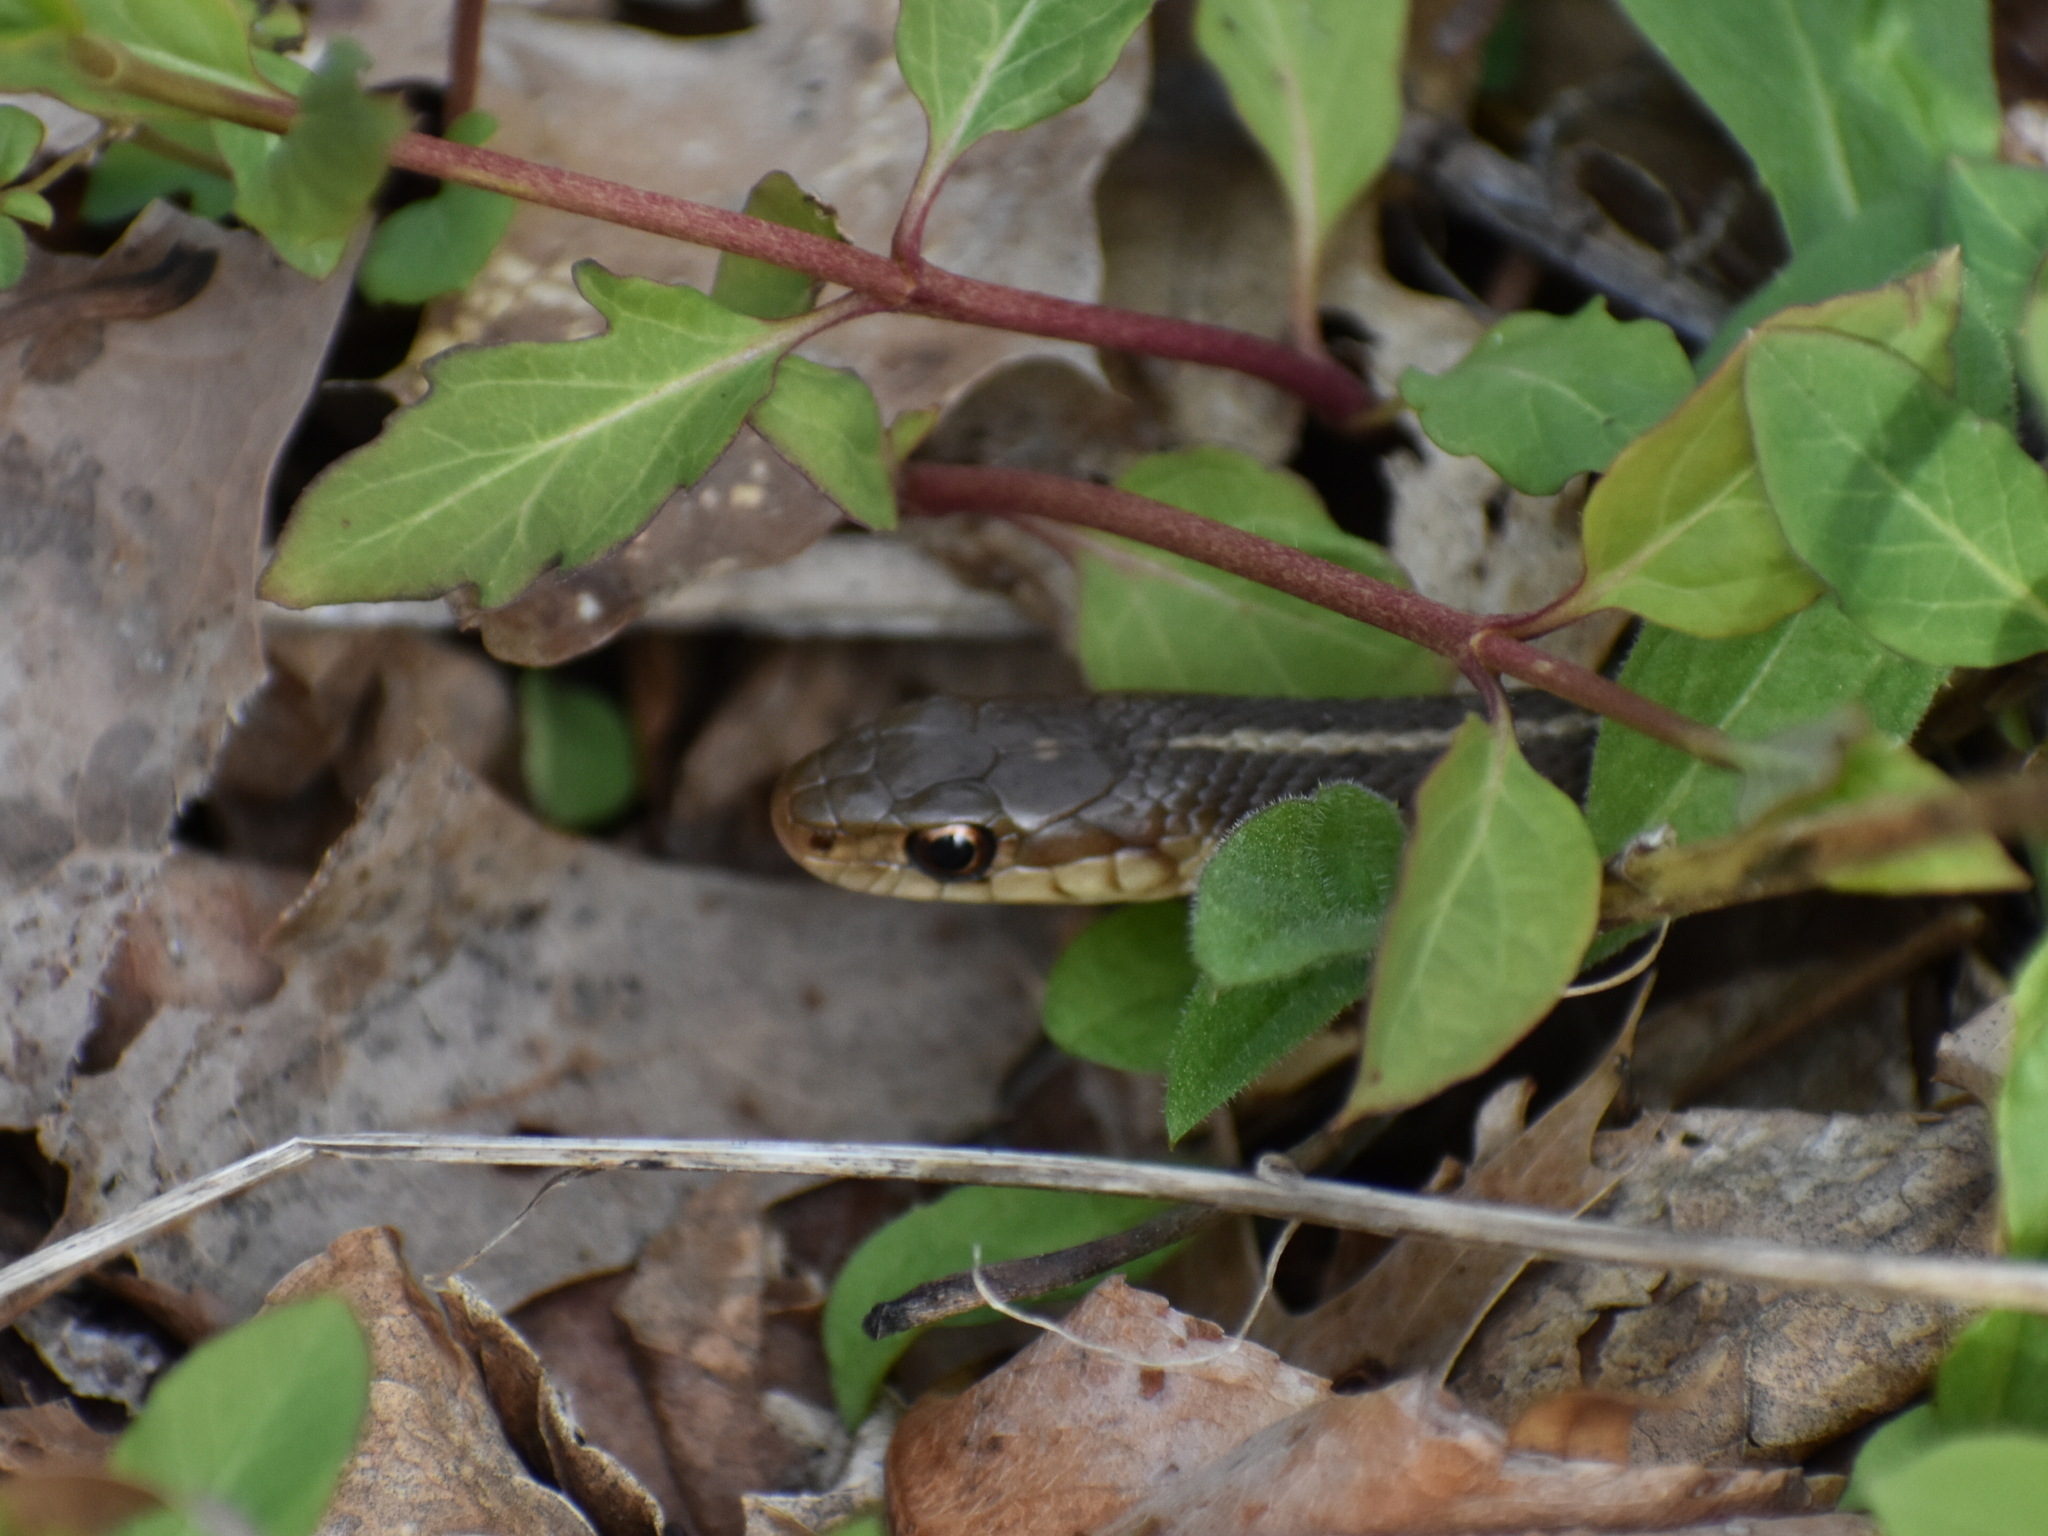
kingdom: Animalia
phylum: Chordata
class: Squamata
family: Colubridae
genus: Thamnophis
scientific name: Thamnophis sirtalis
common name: Common garter snake
